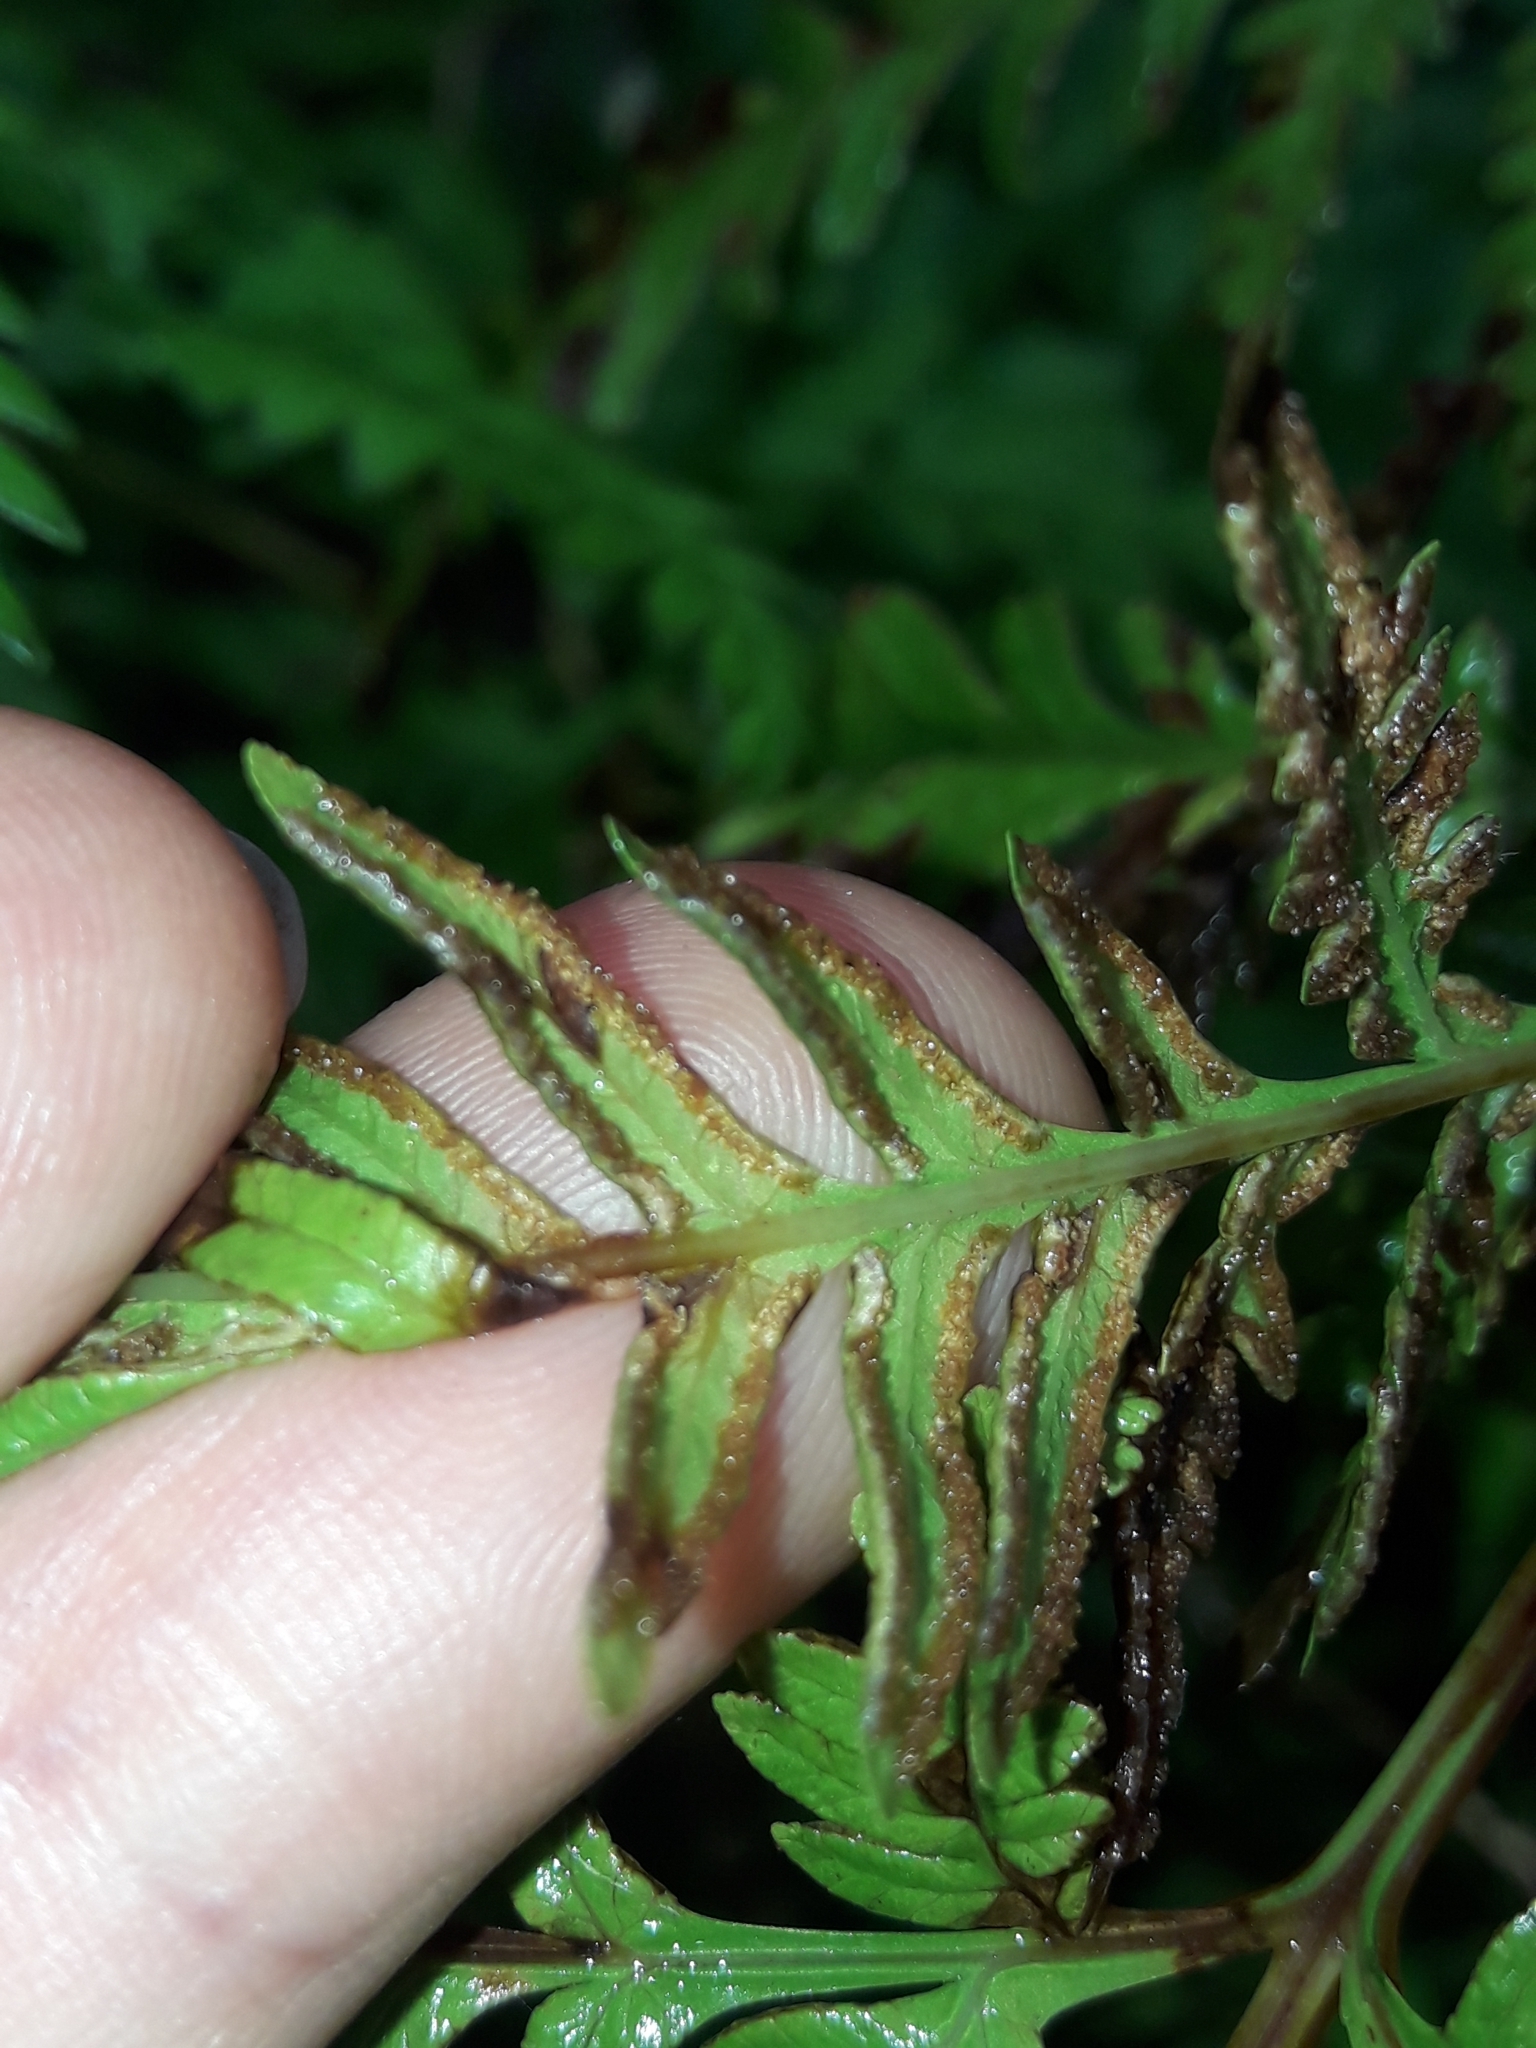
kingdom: Plantae
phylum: Tracheophyta
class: Polypodiopsida
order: Polypodiales
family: Pteridaceae
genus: Pteris
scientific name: Pteris tremula
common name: Australian brake
